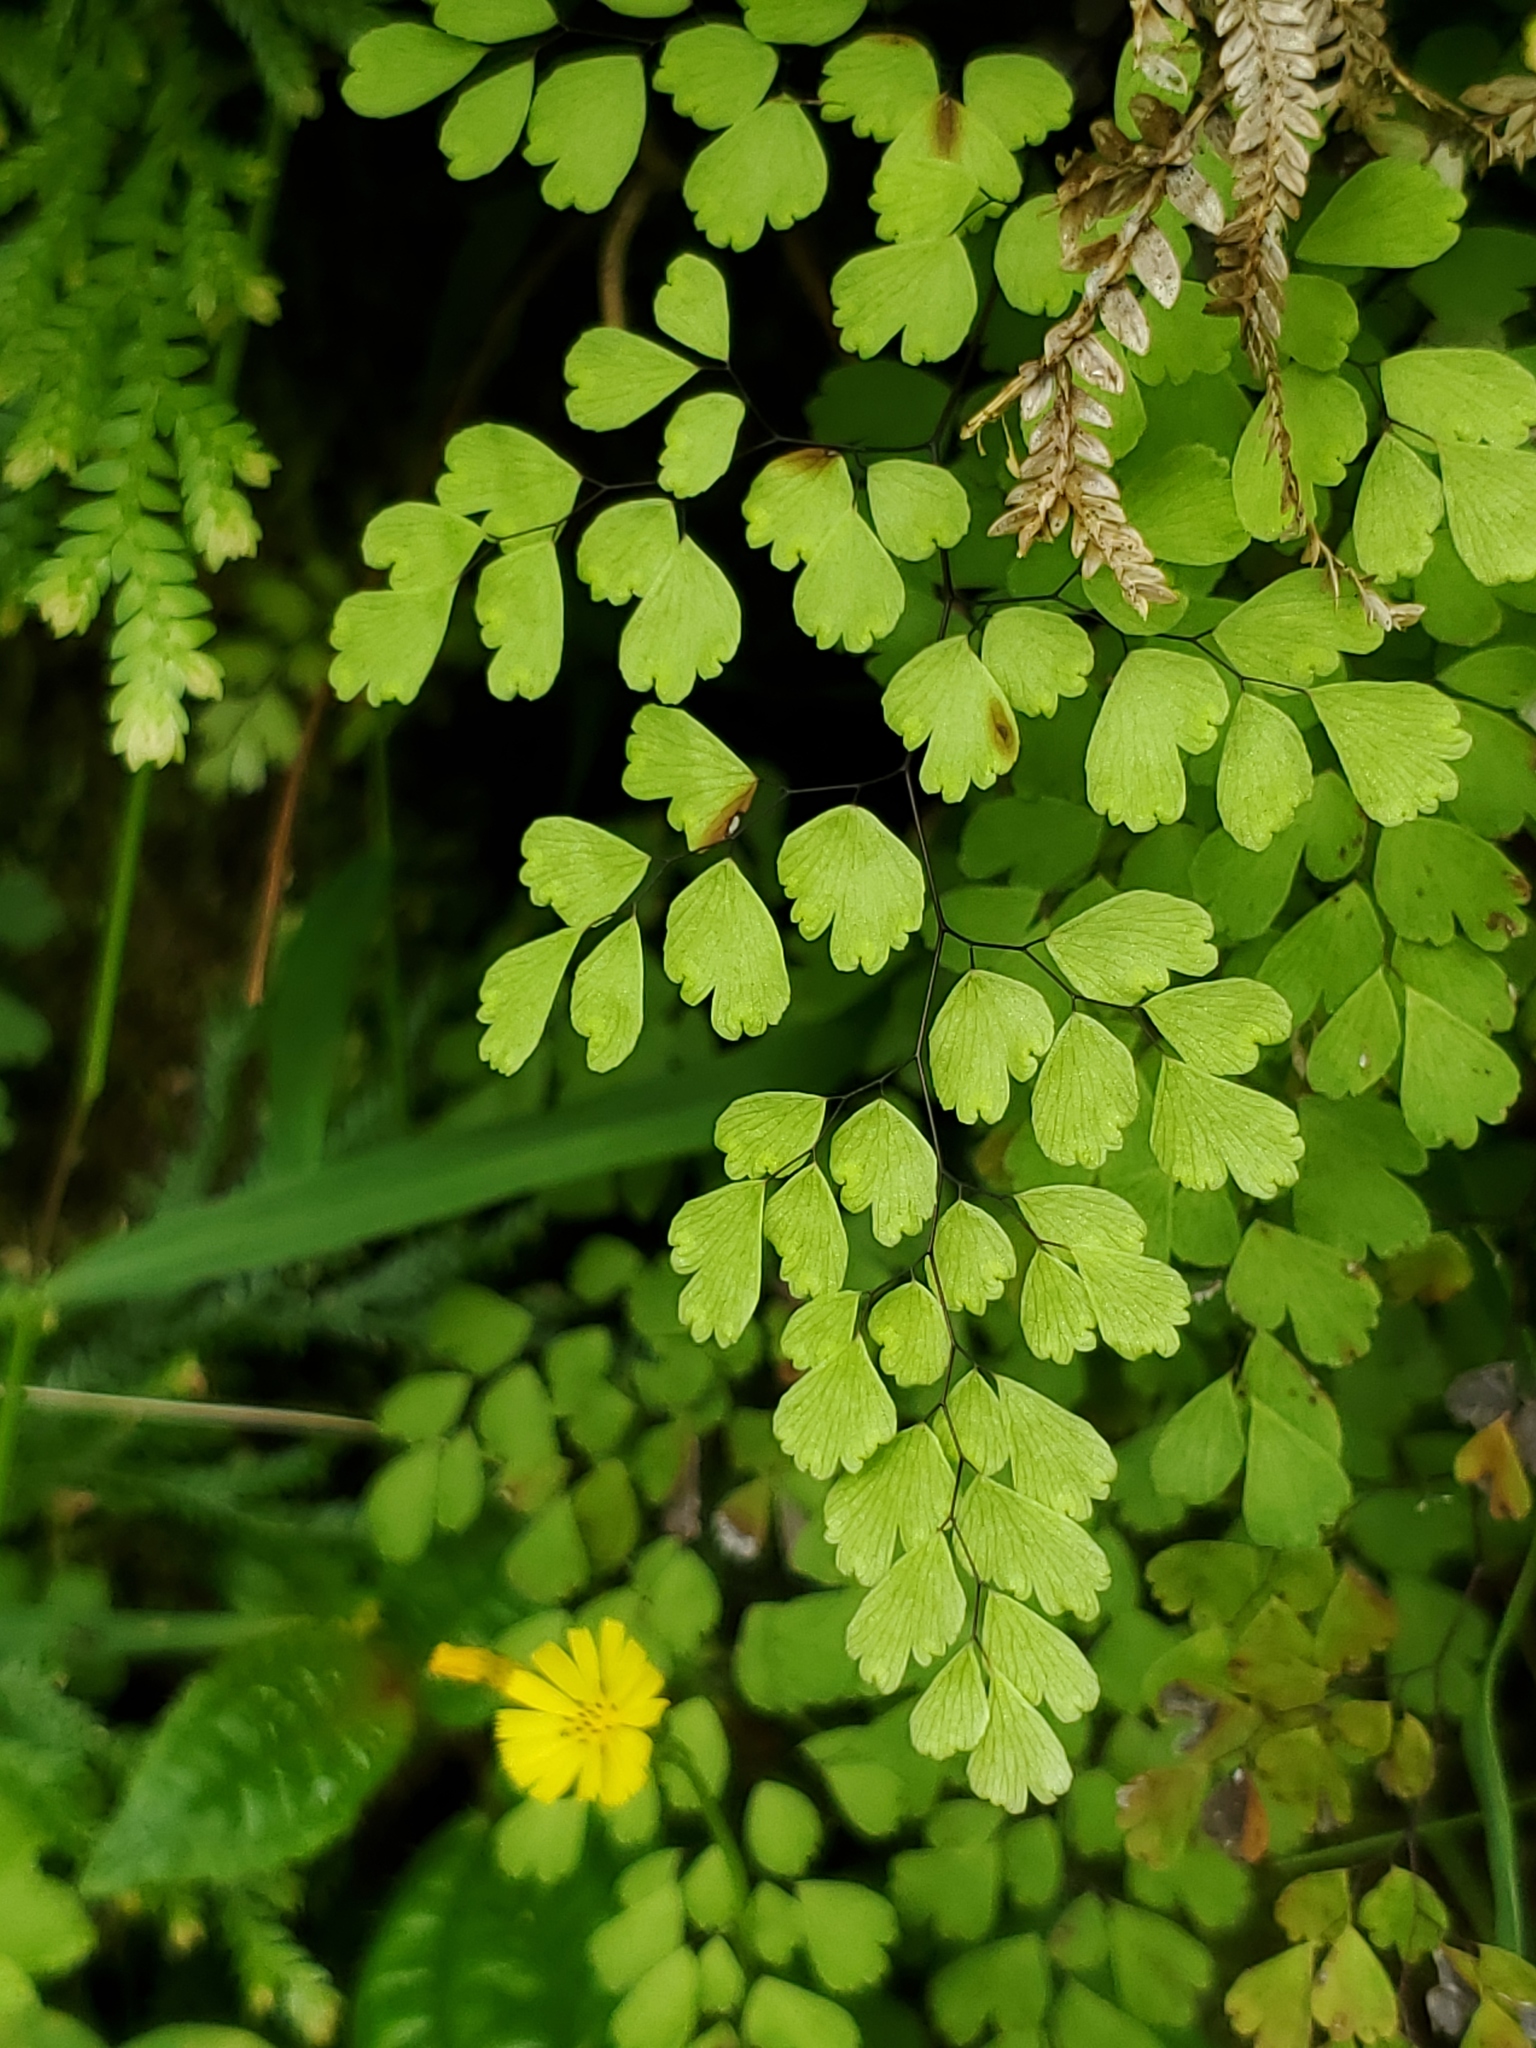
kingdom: Plantae
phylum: Tracheophyta
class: Polypodiopsida
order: Polypodiales
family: Pteridaceae
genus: Adiantum
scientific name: Adiantum raddianum
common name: Delta maidenhair fern
